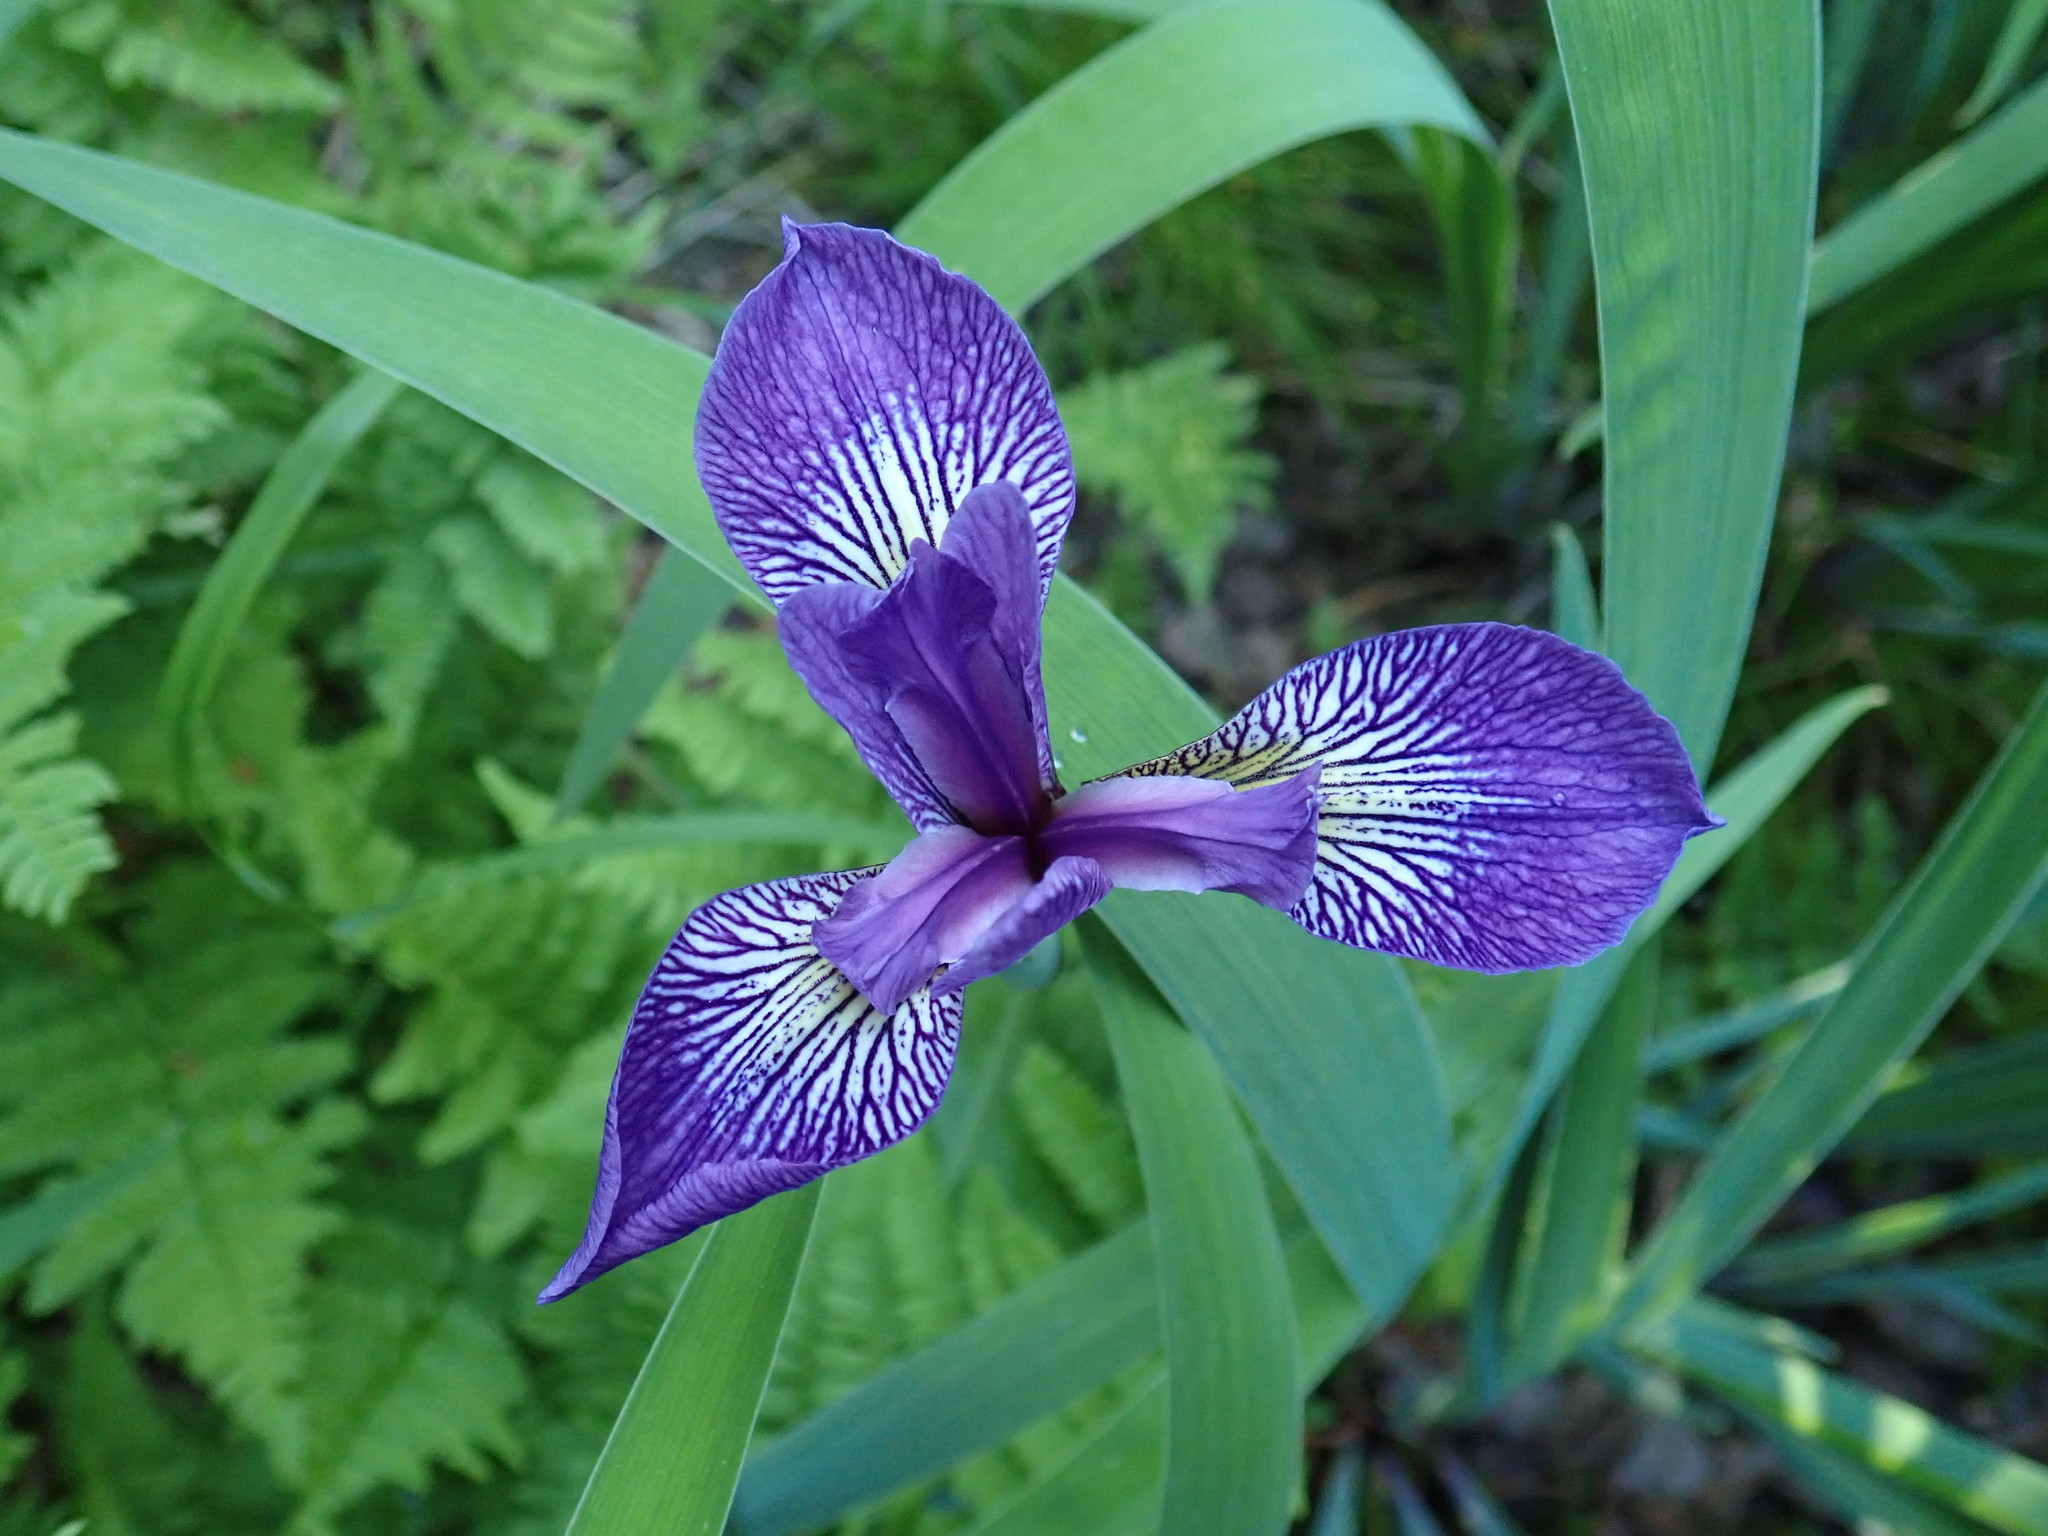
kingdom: Plantae
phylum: Tracheophyta
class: Liliopsida
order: Asparagales
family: Iridaceae
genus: Iris
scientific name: Iris versicolor
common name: Purple iris
